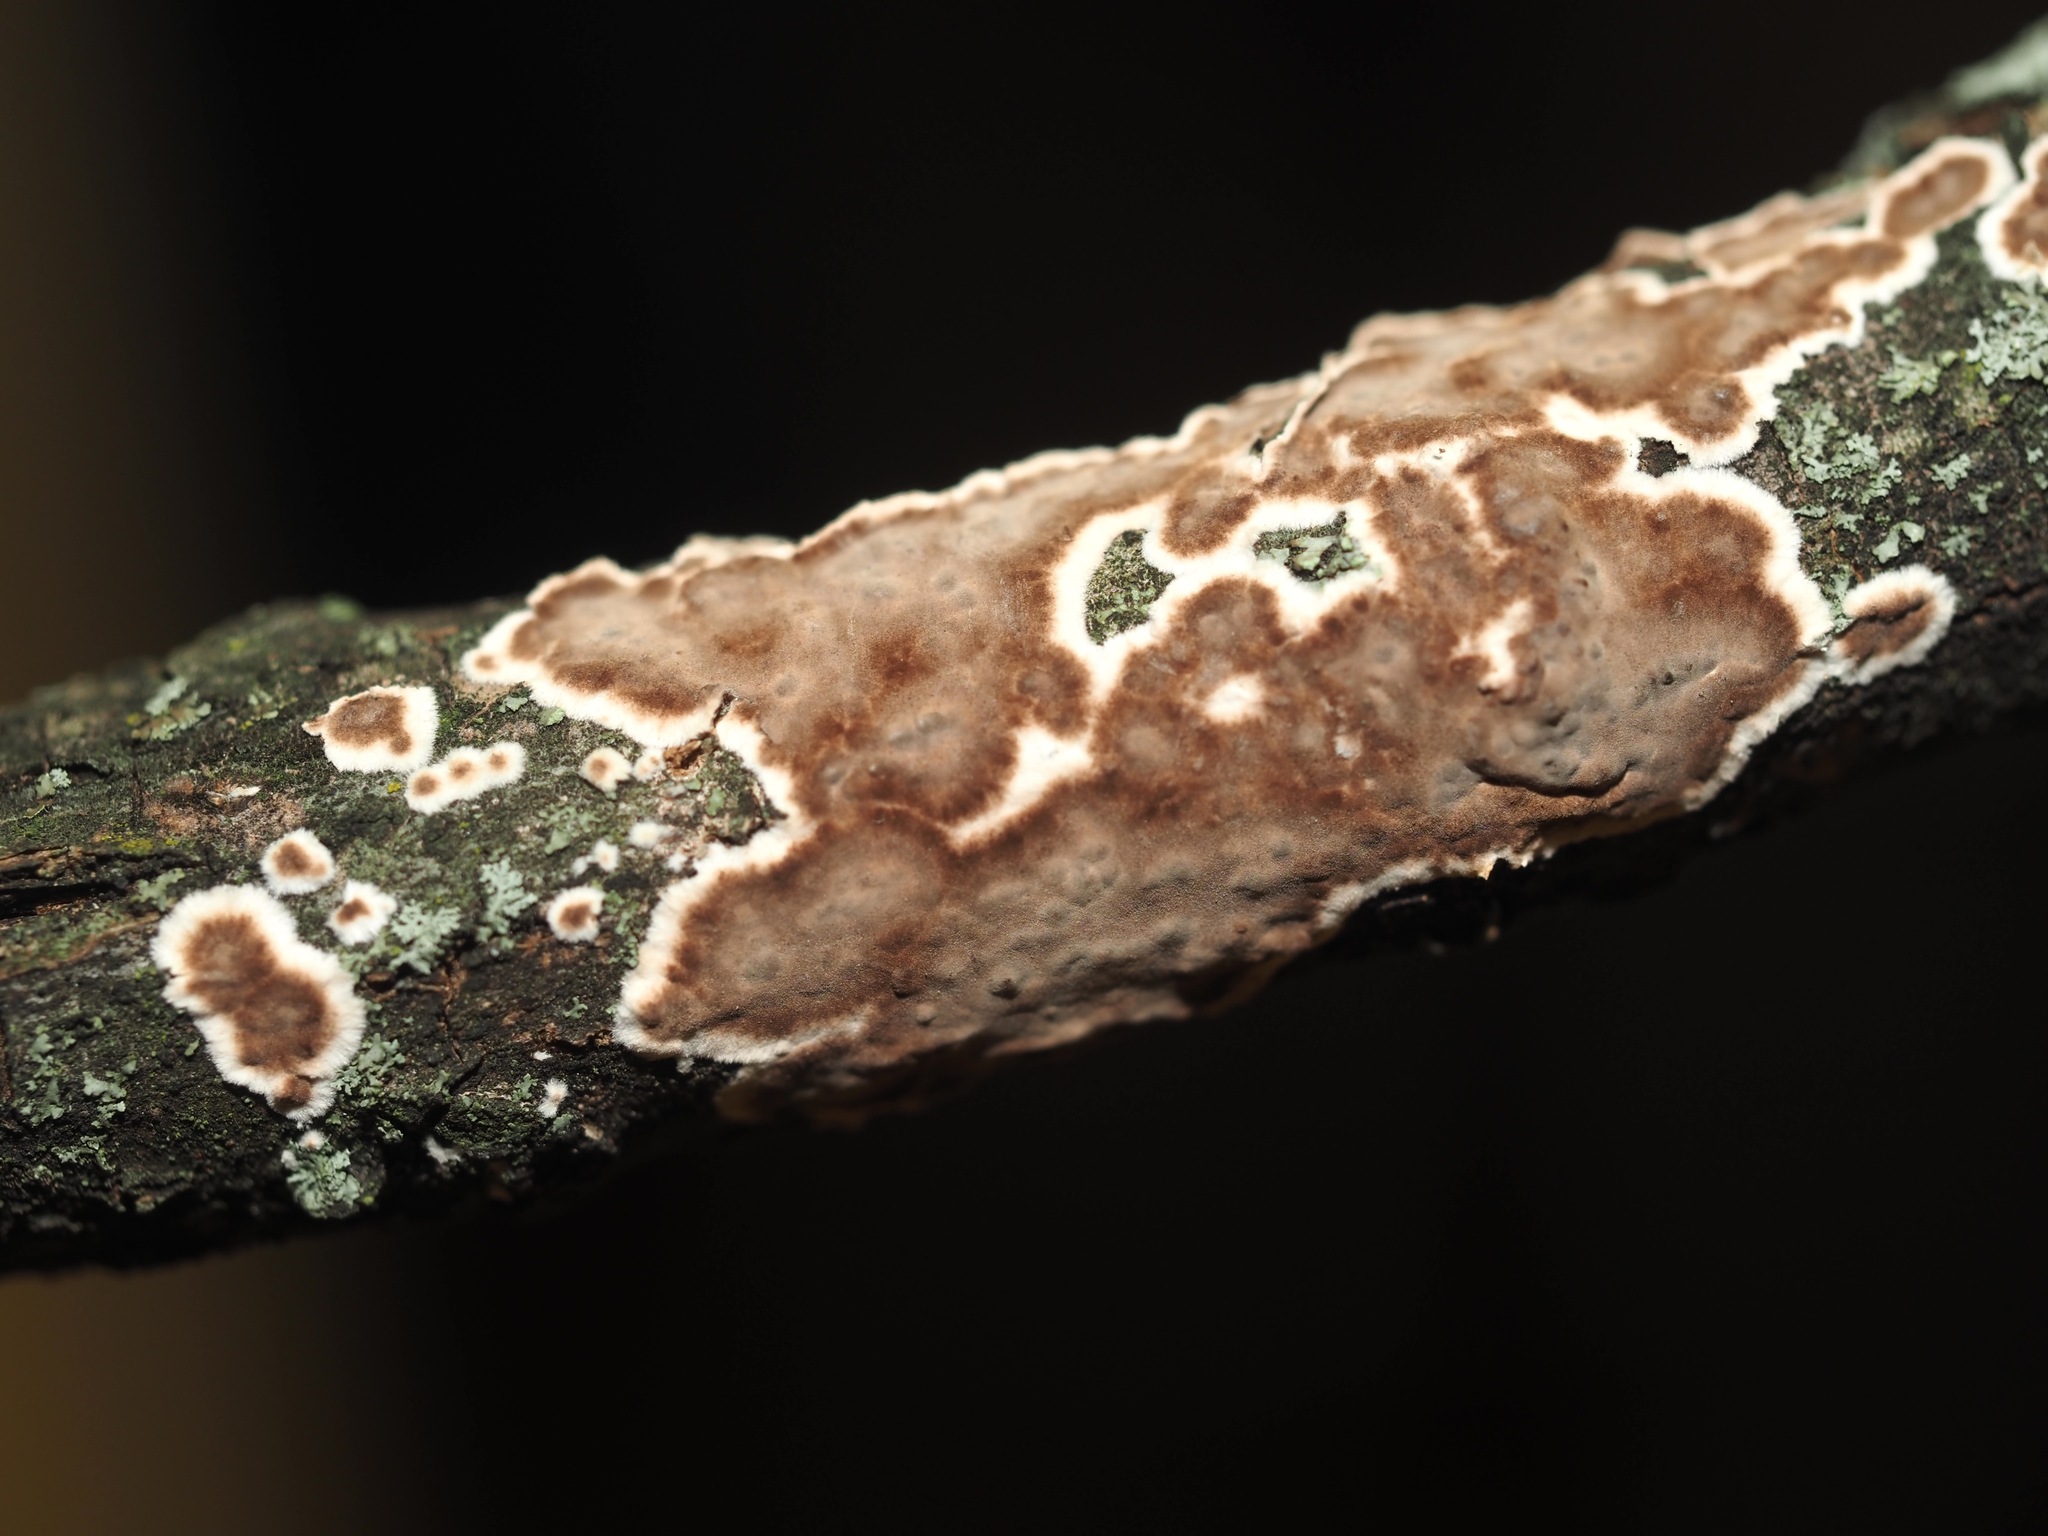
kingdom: Fungi
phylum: Basidiomycota
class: Agaricomycetes
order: Russulales
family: Peniophoraceae
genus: Peniophora
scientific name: Peniophora albobadia
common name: Giraffe spots
